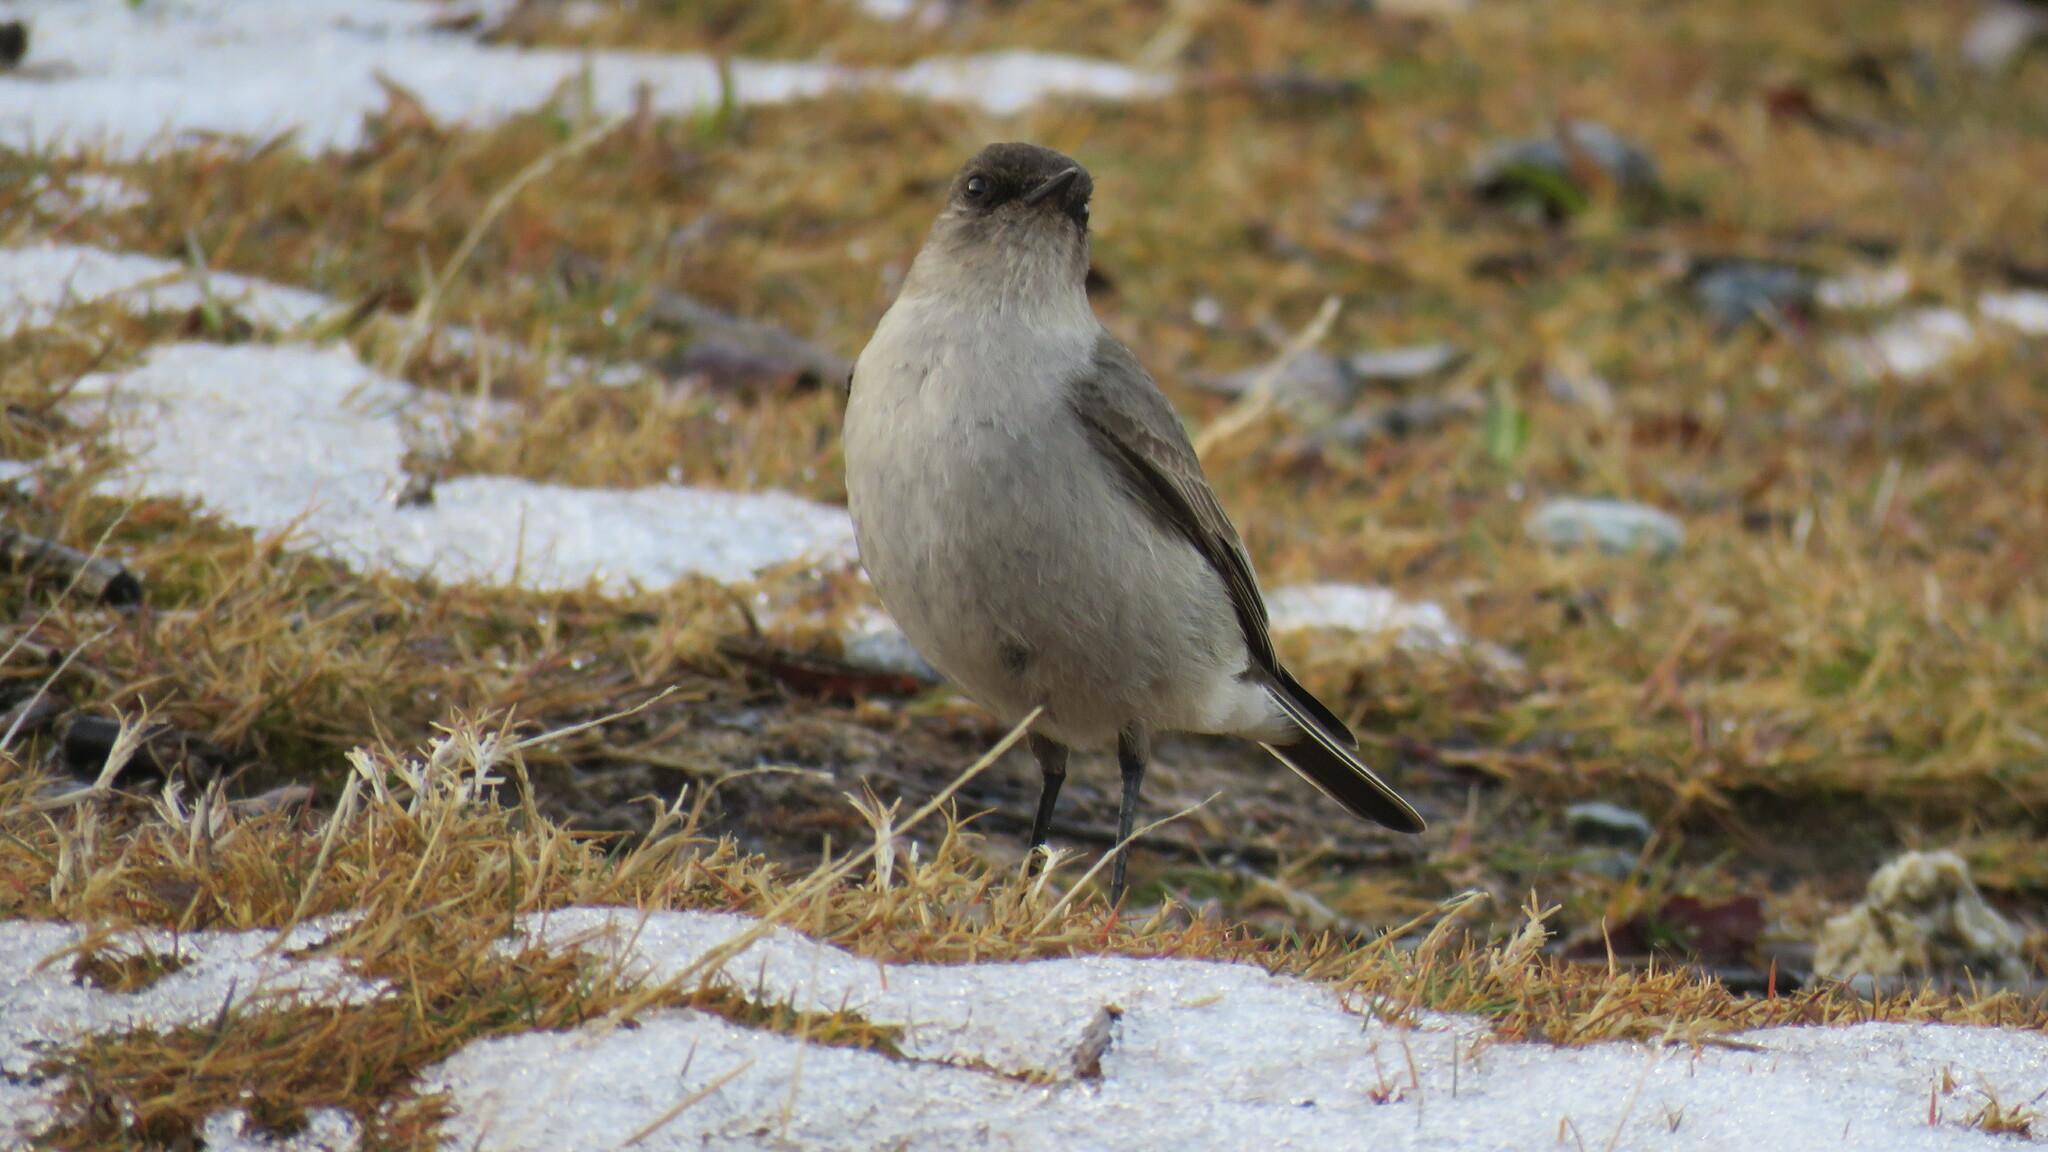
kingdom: Animalia
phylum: Chordata
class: Aves
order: Passeriformes
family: Tyrannidae
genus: Muscisaxicola
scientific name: Muscisaxicola maclovianus
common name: Dark-faced ground tyrant
